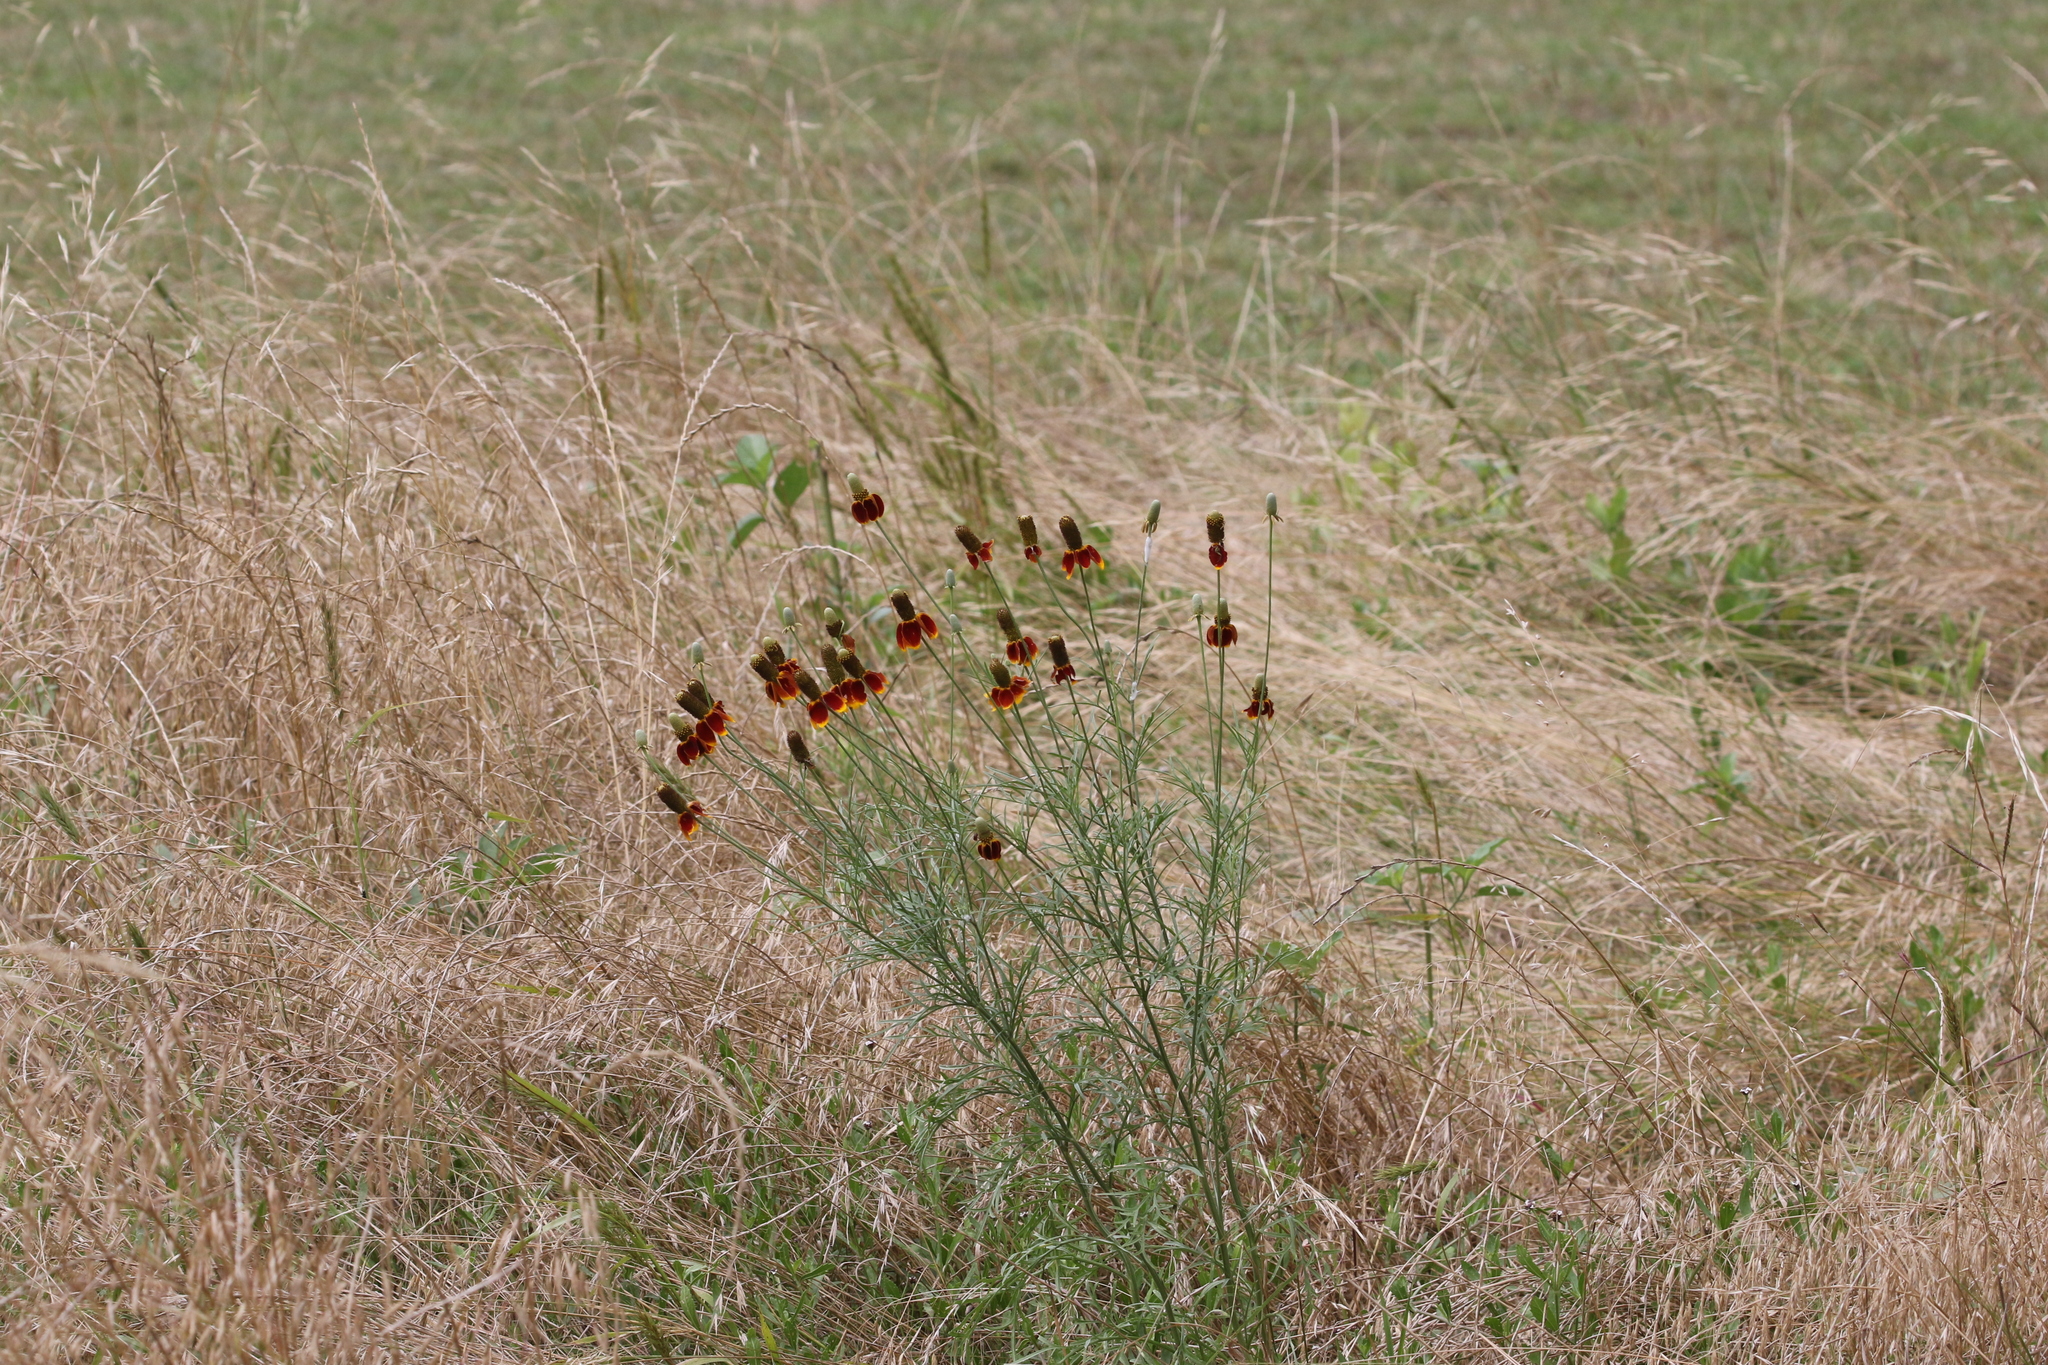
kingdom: Plantae
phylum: Tracheophyta
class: Magnoliopsida
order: Asterales
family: Asteraceae
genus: Ratibida
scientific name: Ratibida columnifera
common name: Prairie coneflower
